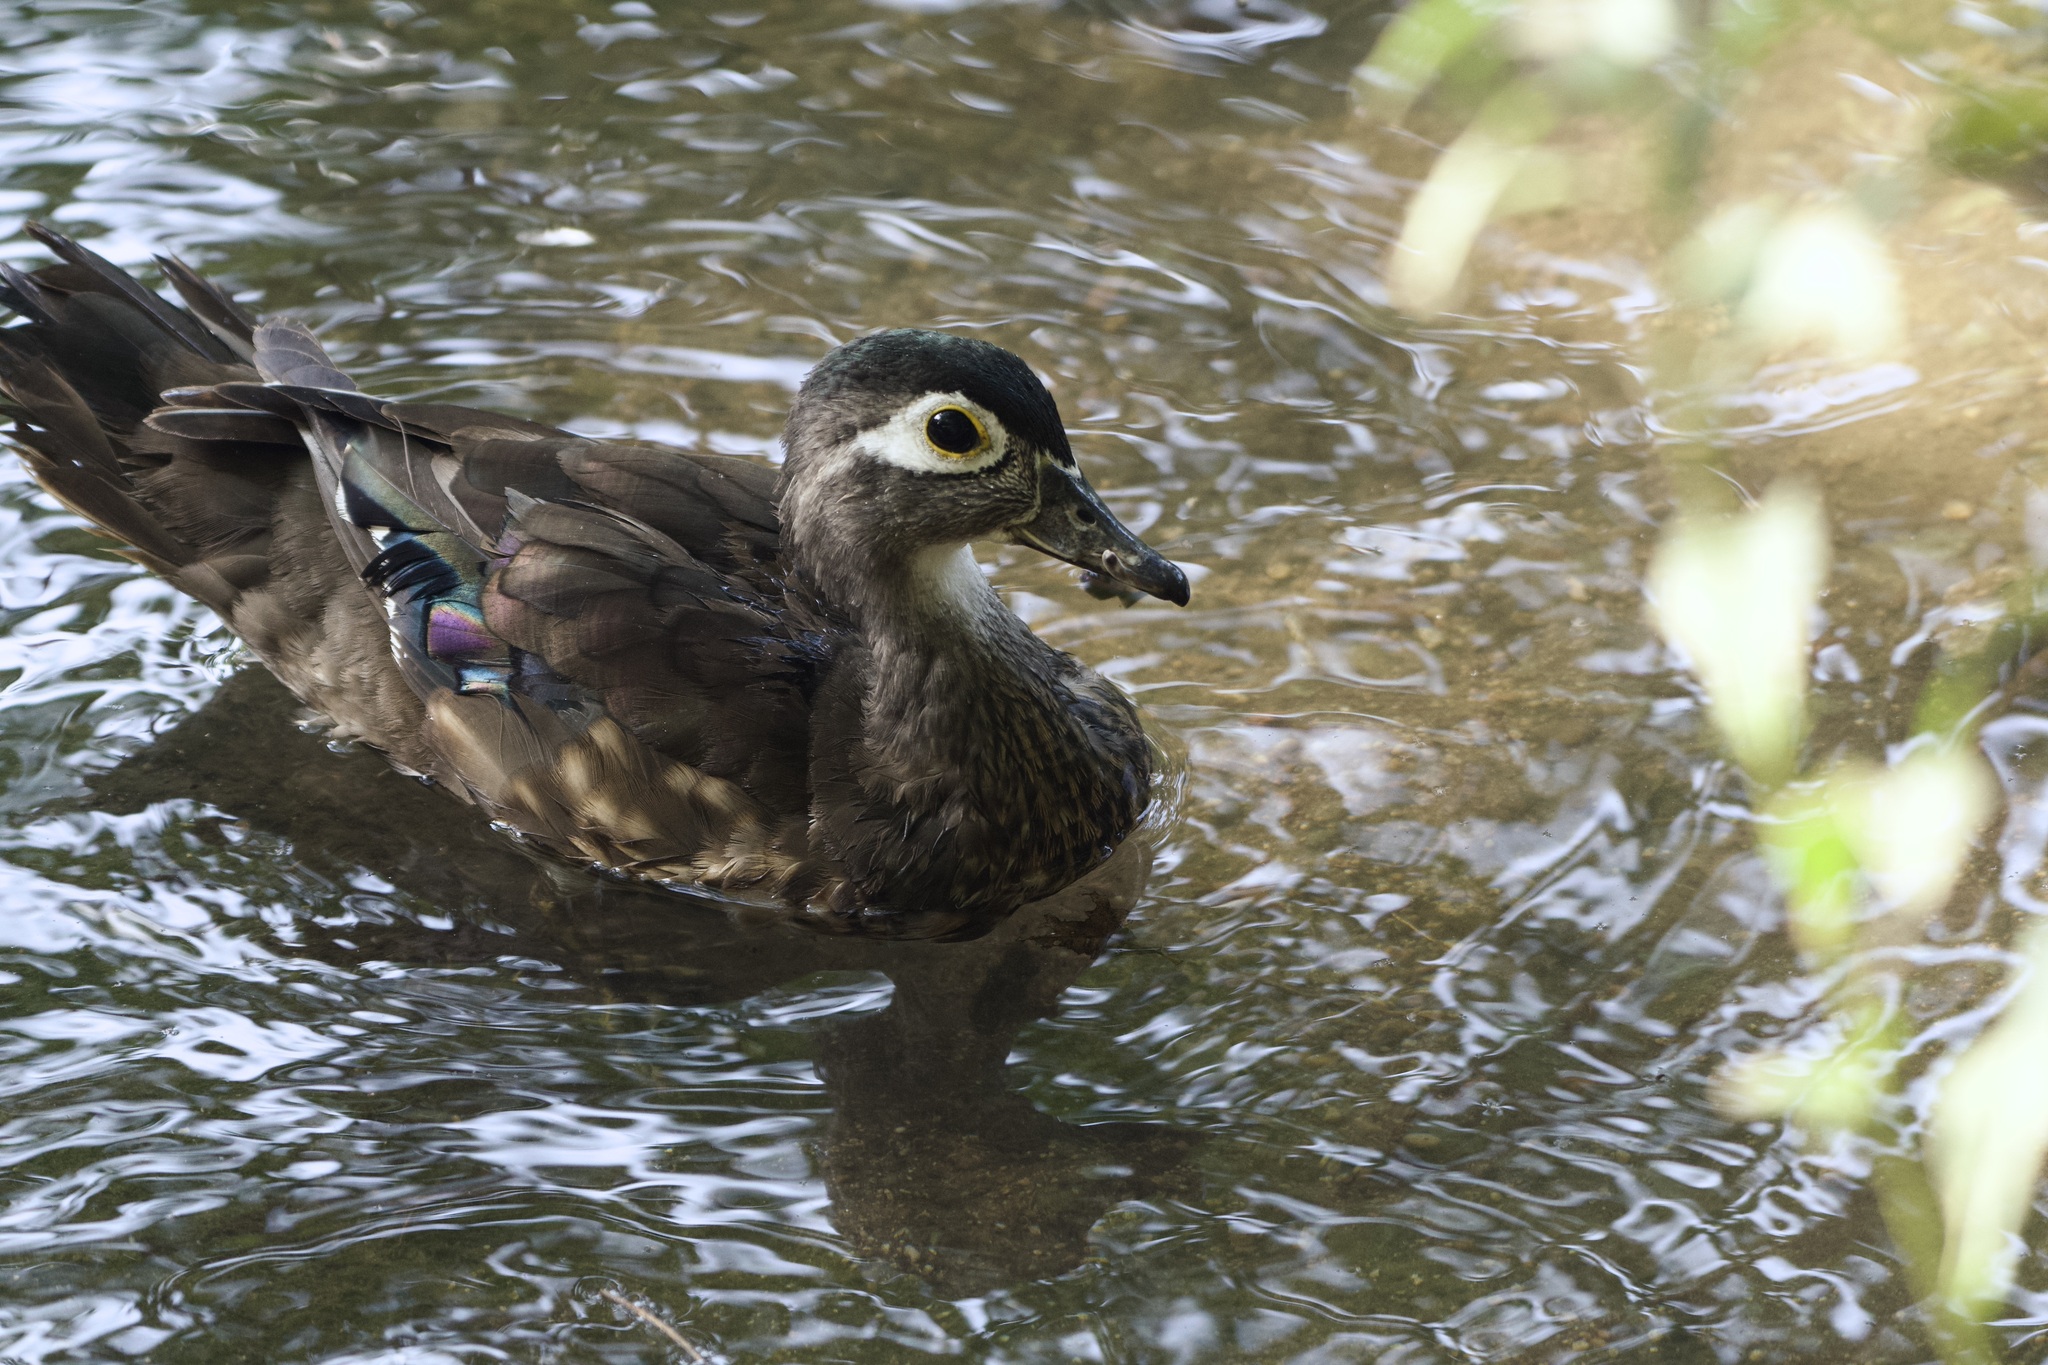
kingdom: Animalia
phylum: Chordata
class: Aves
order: Anseriformes
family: Anatidae
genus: Aix
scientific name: Aix sponsa
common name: Wood duck
